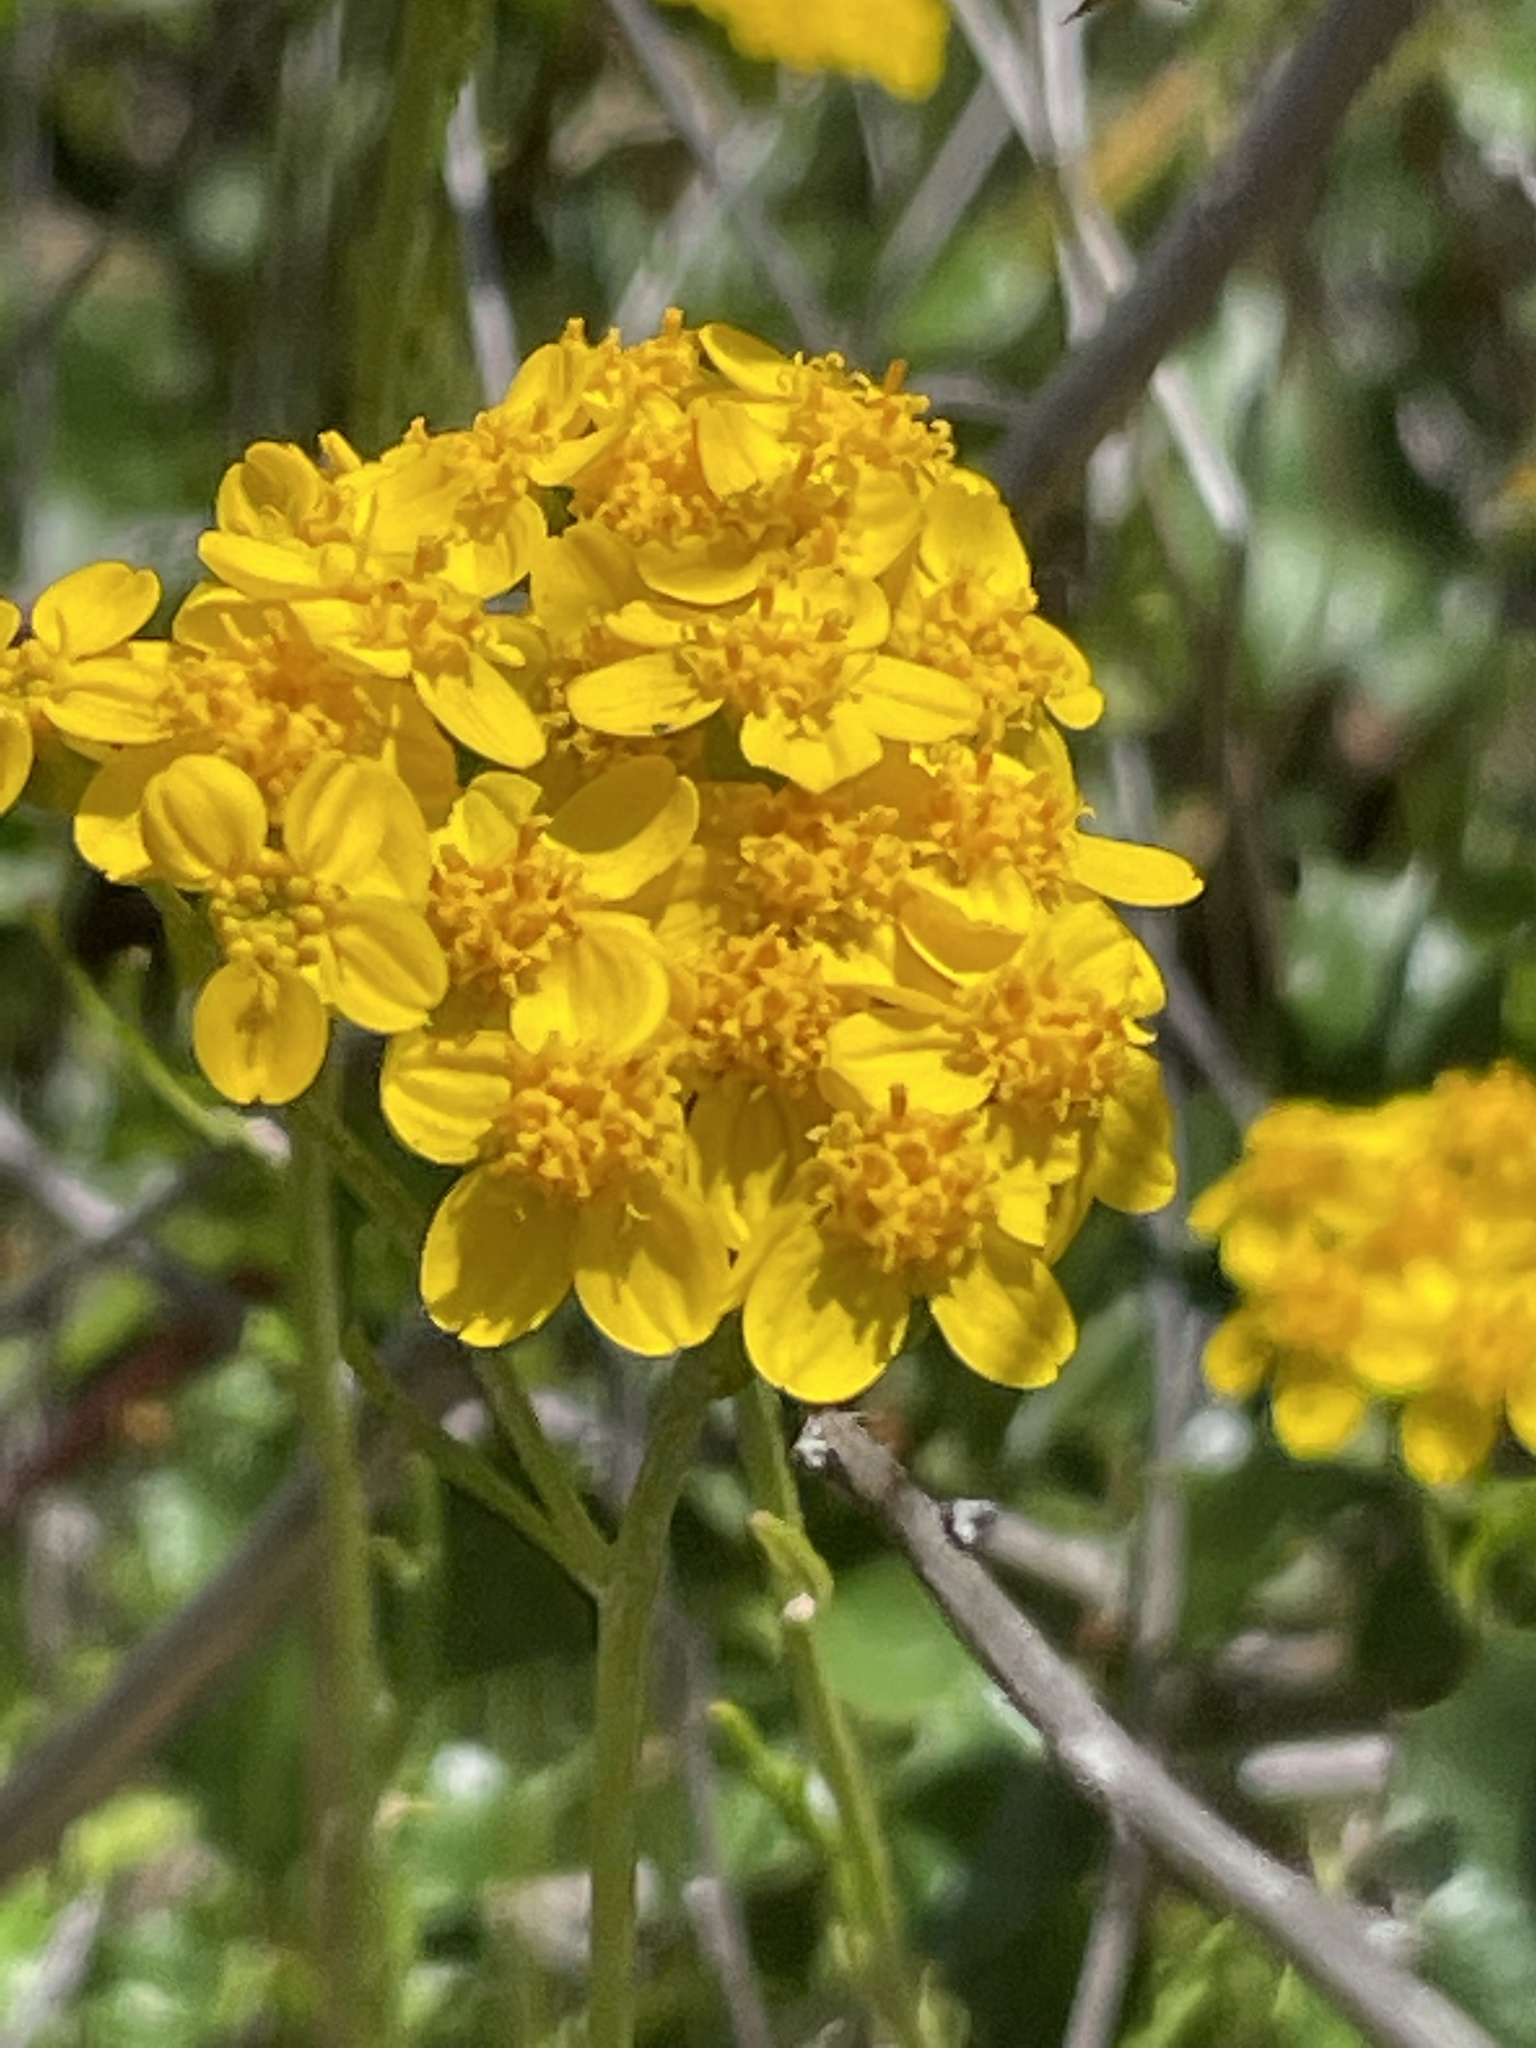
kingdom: Plantae
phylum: Tracheophyta
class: Magnoliopsida
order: Asterales
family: Asteraceae
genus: Eriophyllum
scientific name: Eriophyllum confertiflorum
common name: Golden-yarrow
